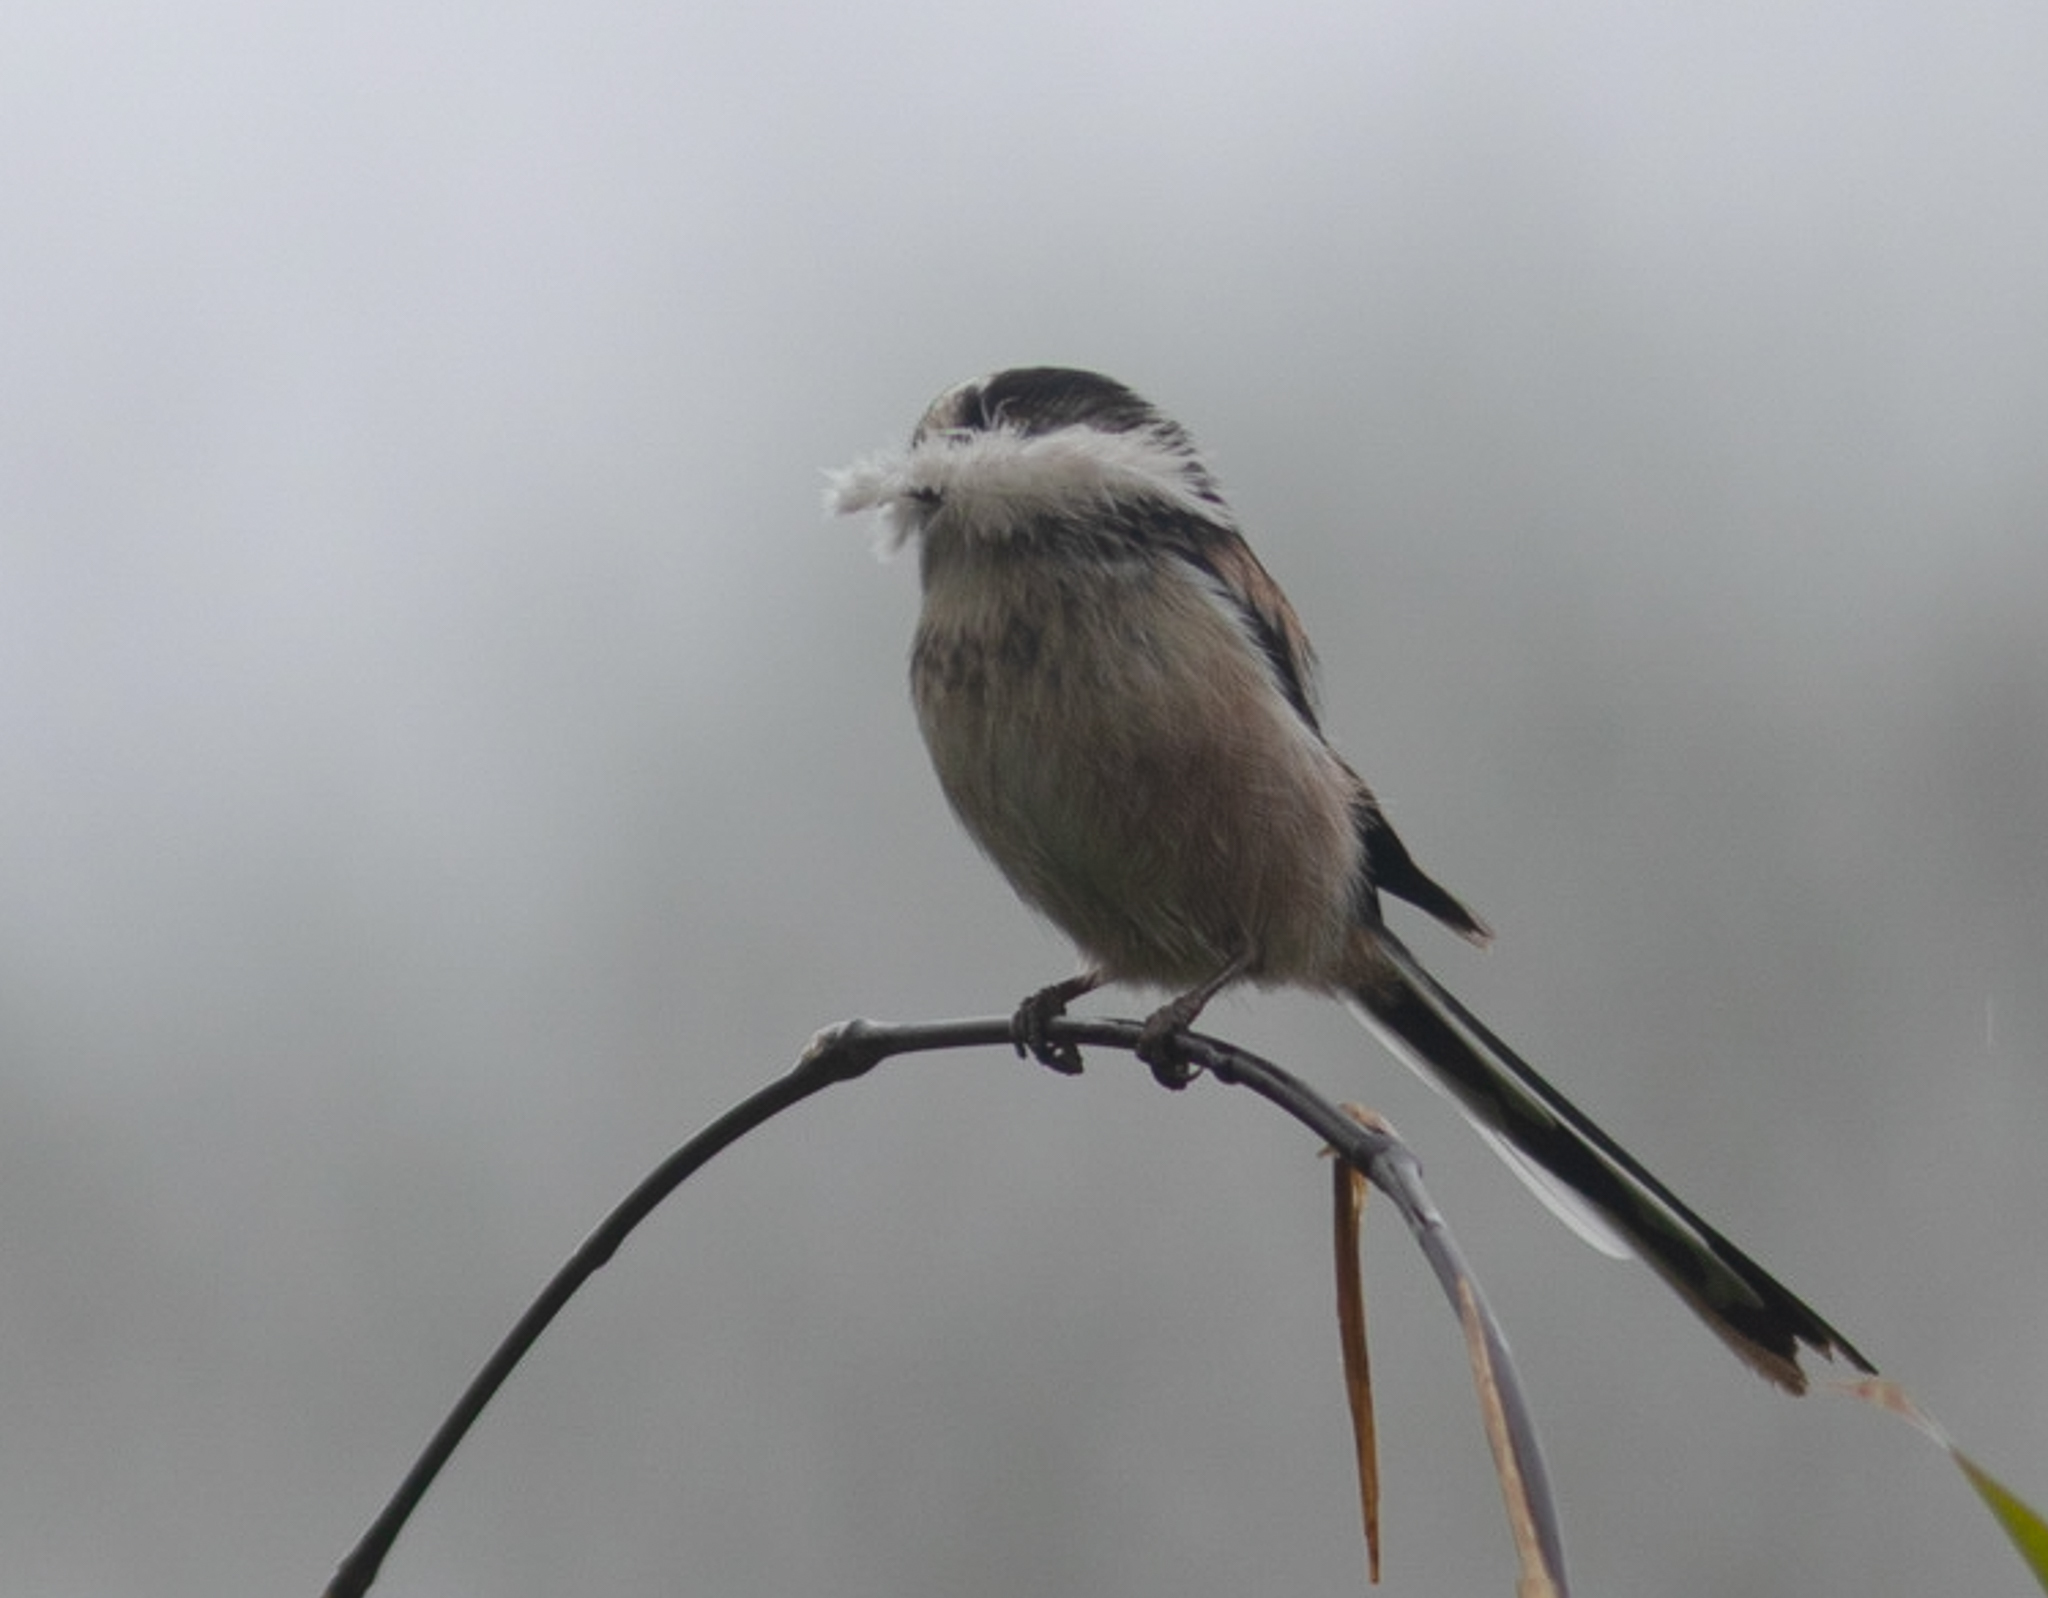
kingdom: Animalia
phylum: Chordata
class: Aves
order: Passeriformes
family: Aegithalidae
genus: Aegithalos
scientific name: Aegithalos caudatus
